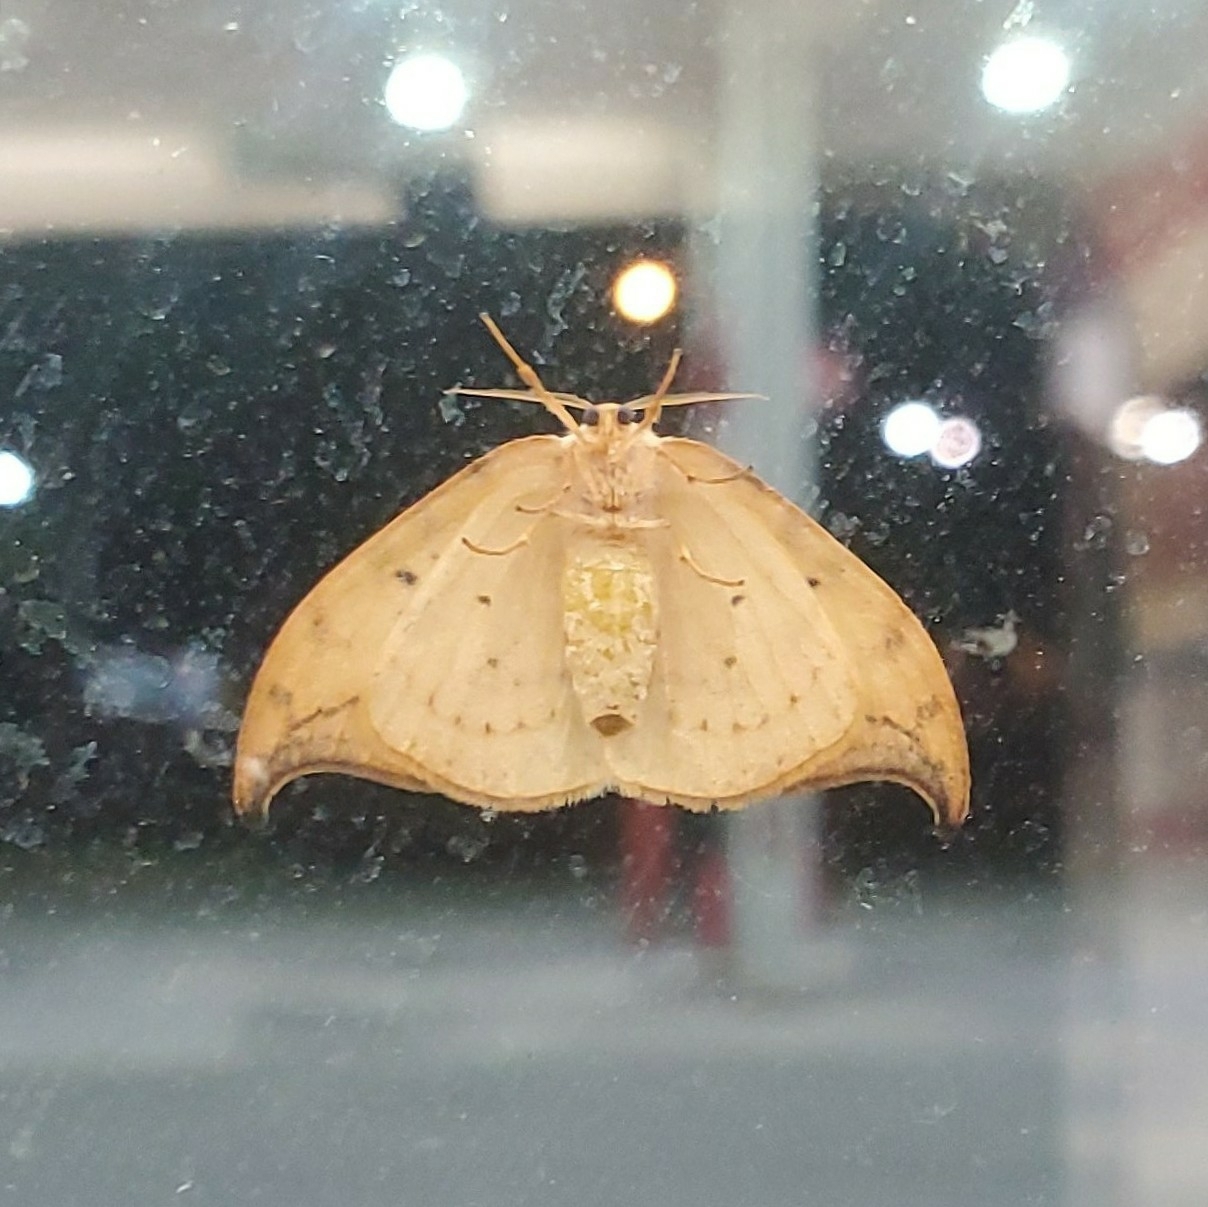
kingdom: Animalia
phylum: Arthropoda
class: Insecta
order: Lepidoptera
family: Drepanidae
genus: Drepana
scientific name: Drepana arcuata
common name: Arched hooktip moth
